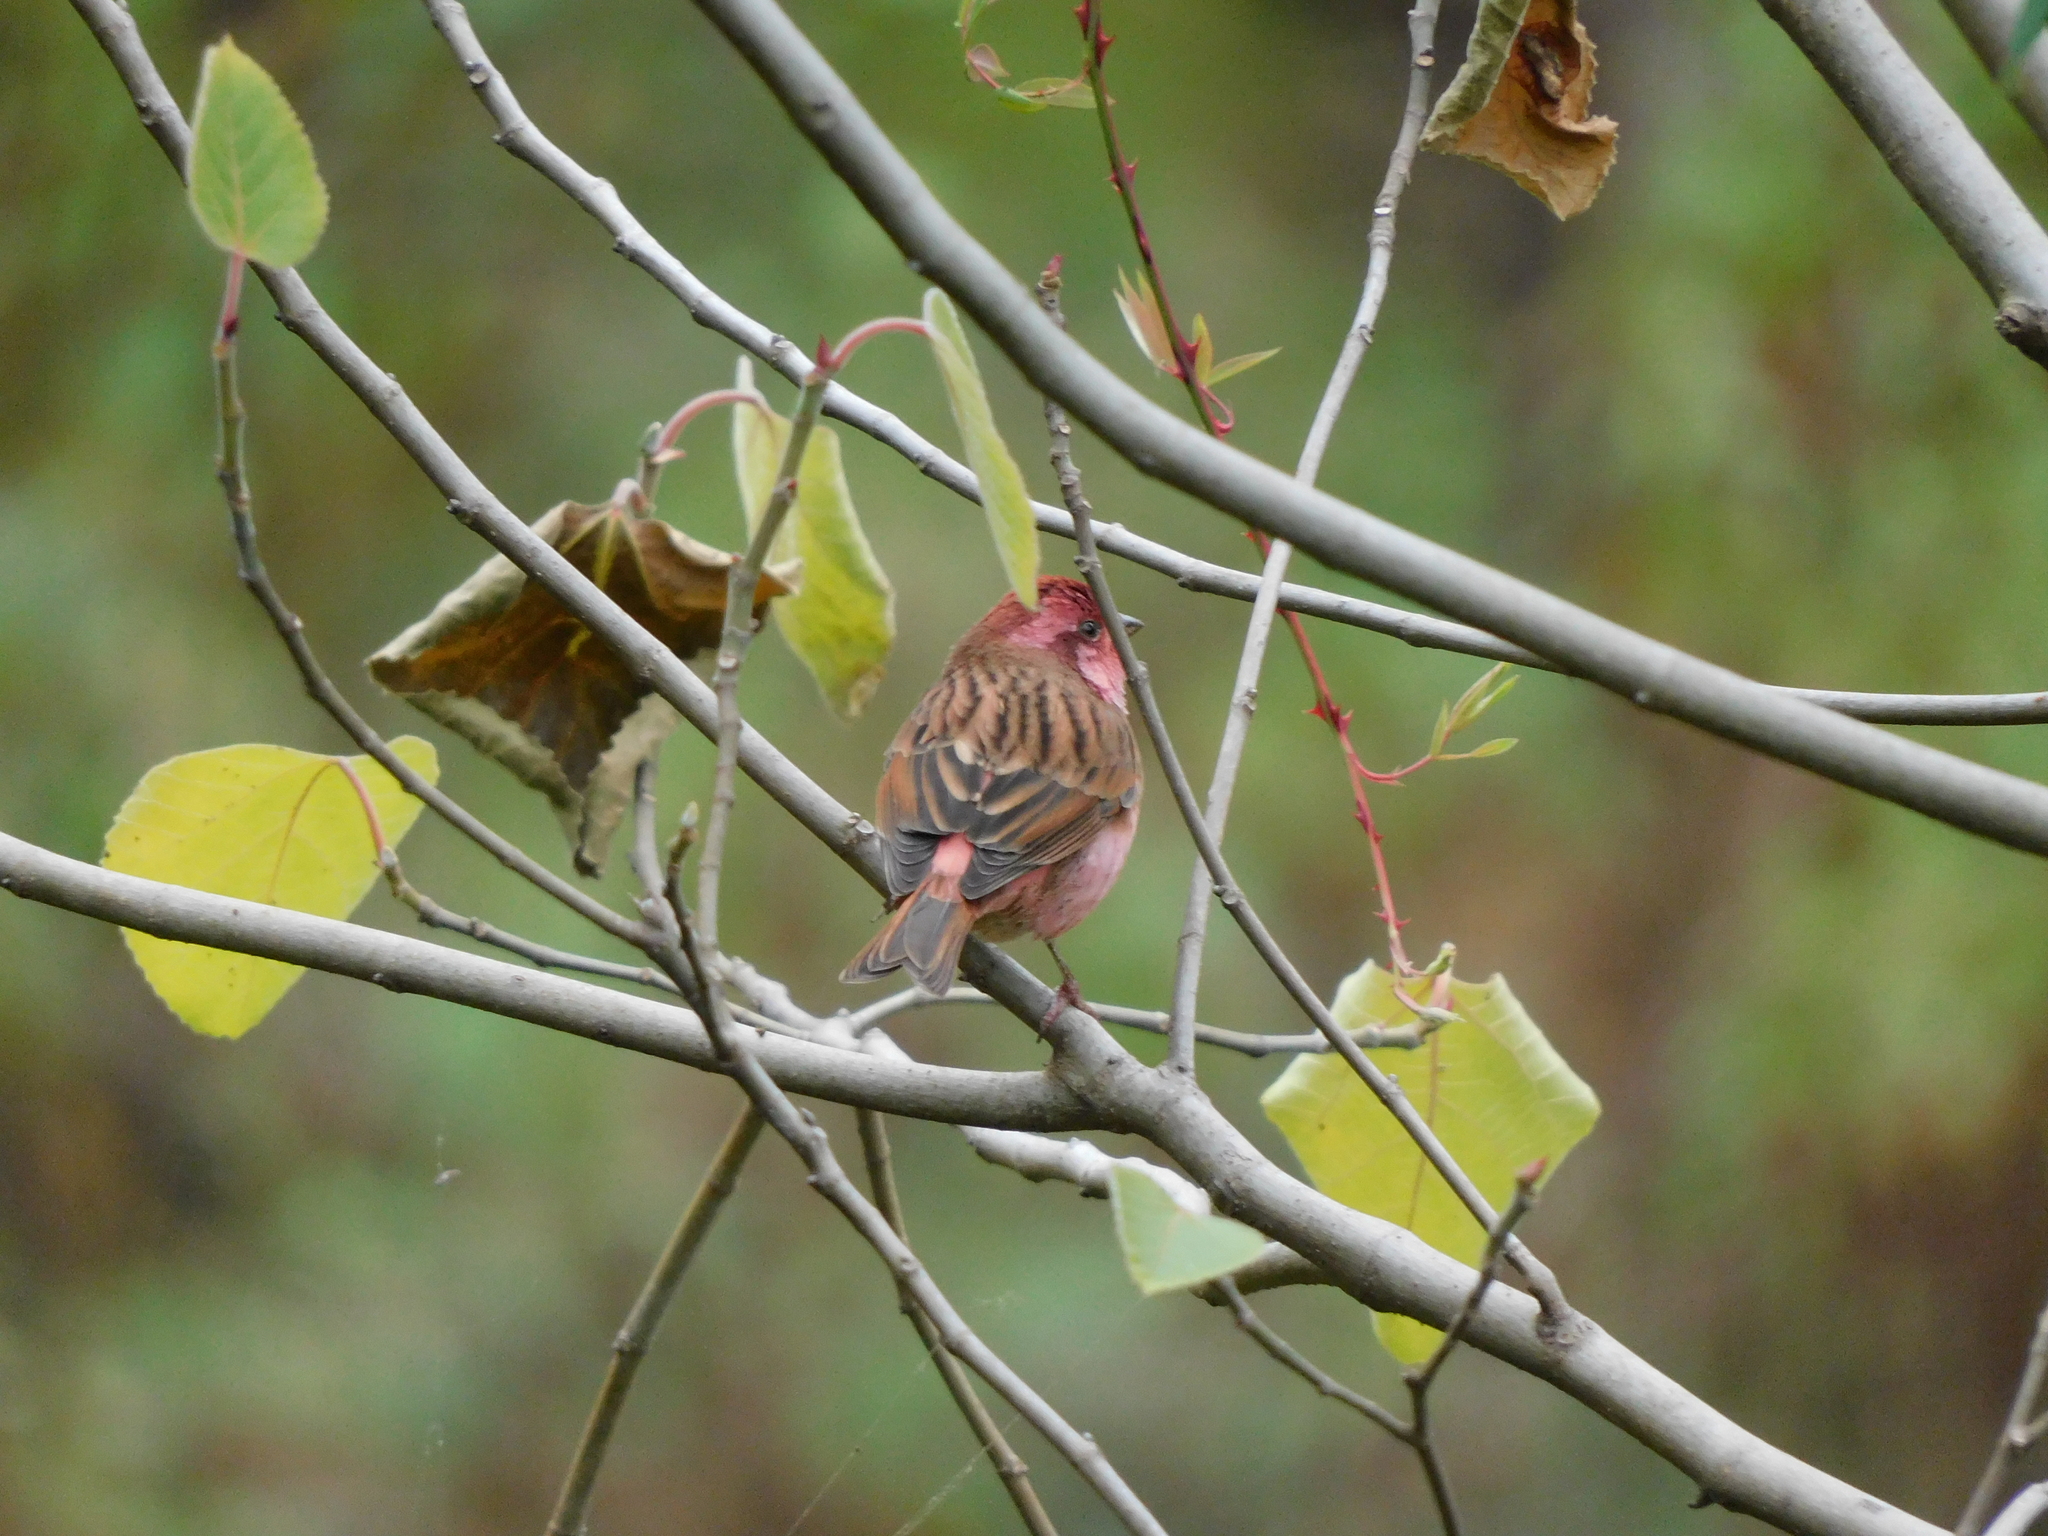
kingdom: Animalia
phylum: Chordata
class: Aves
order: Passeriformes
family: Fringillidae
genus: Carpodacus
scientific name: Carpodacus rodochroa
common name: Pink-browed rosefinch
